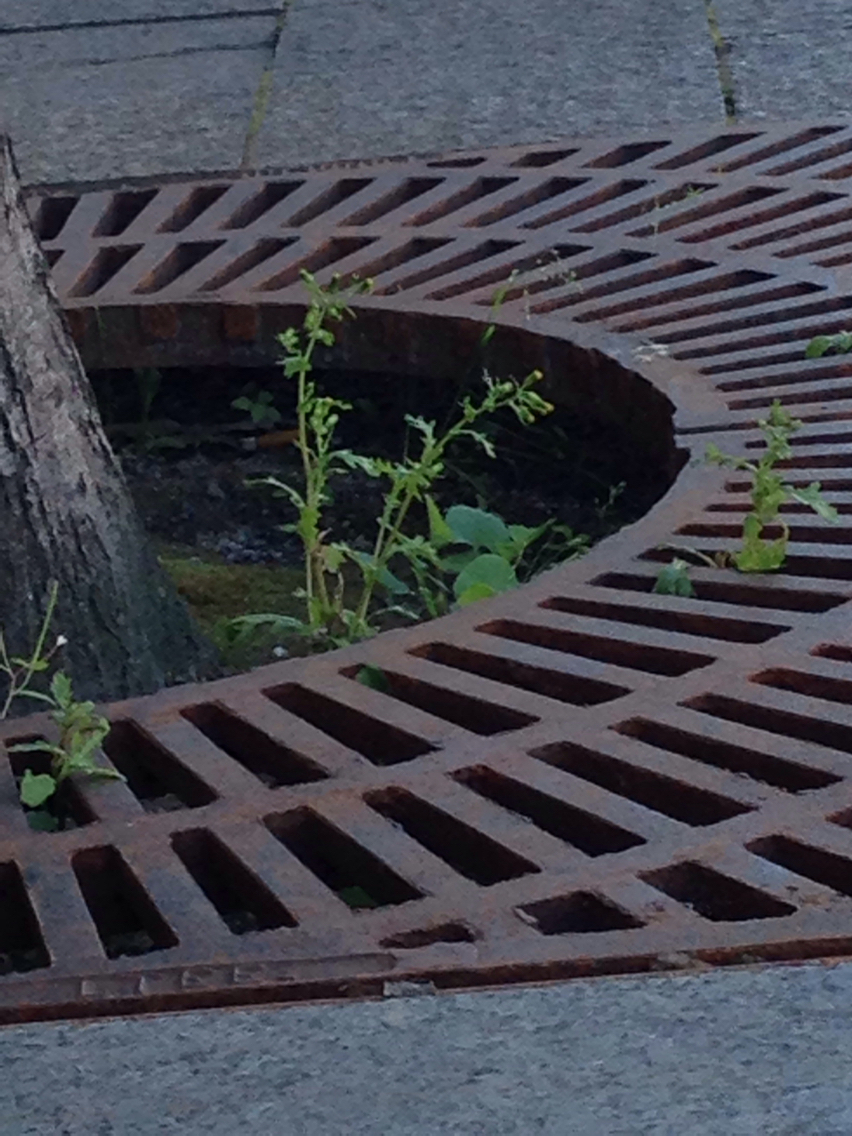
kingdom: Plantae
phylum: Tracheophyta
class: Magnoliopsida
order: Asterales
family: Asteraceae
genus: Senecio
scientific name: Senecio vulgaris
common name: Old-man-in-the-spring
